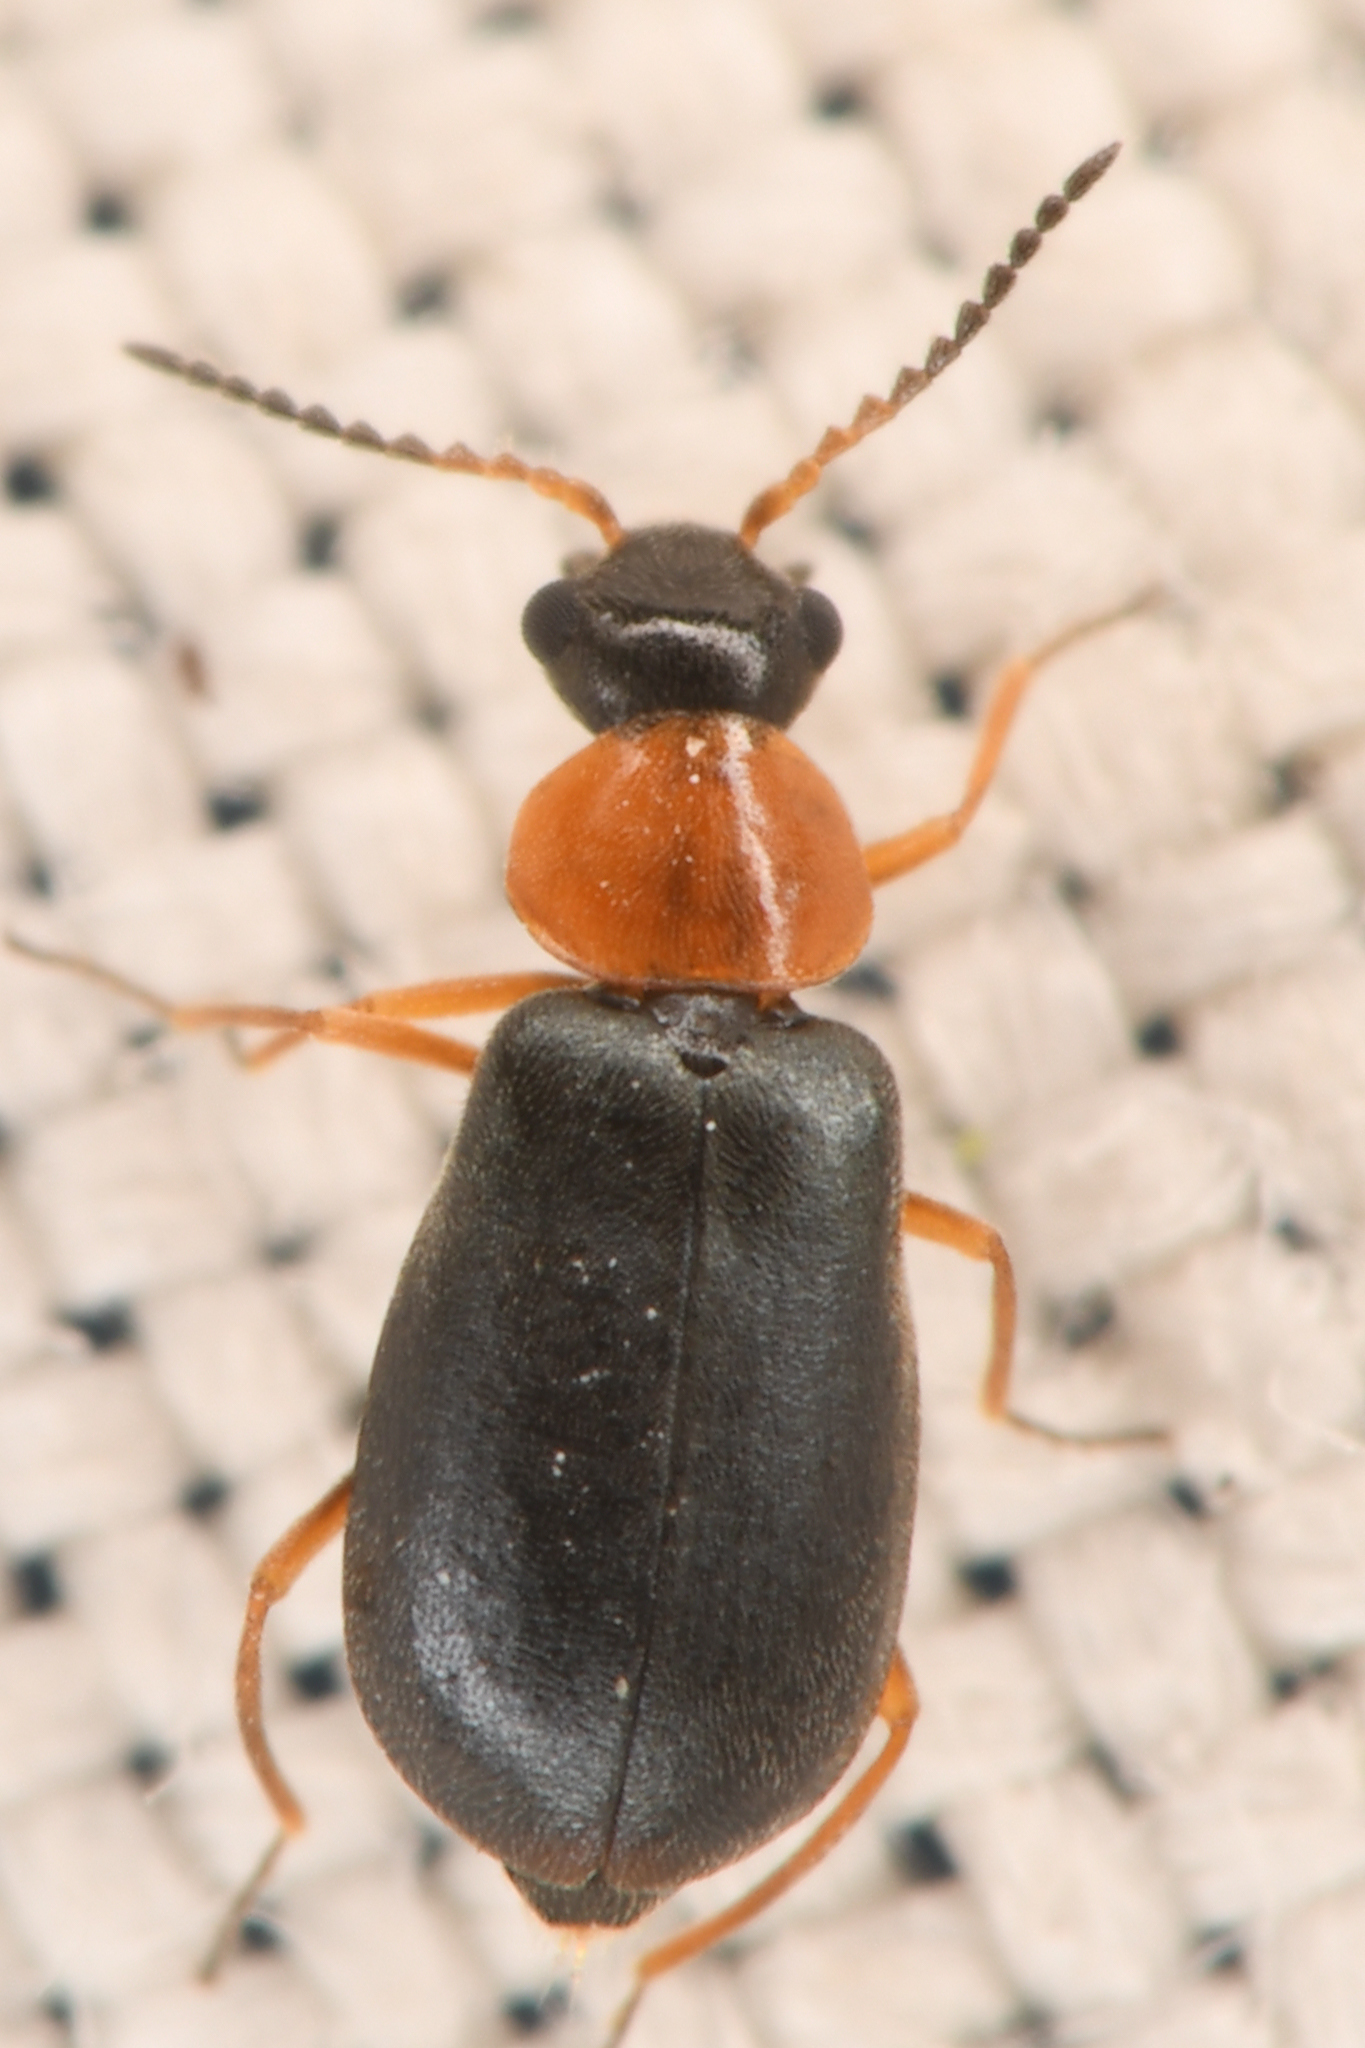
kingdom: Animalia
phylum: Arthropoda
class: Insecta
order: Coleoptera
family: Melyridae
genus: Hypebaeus
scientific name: Hypebaeus bicolor
